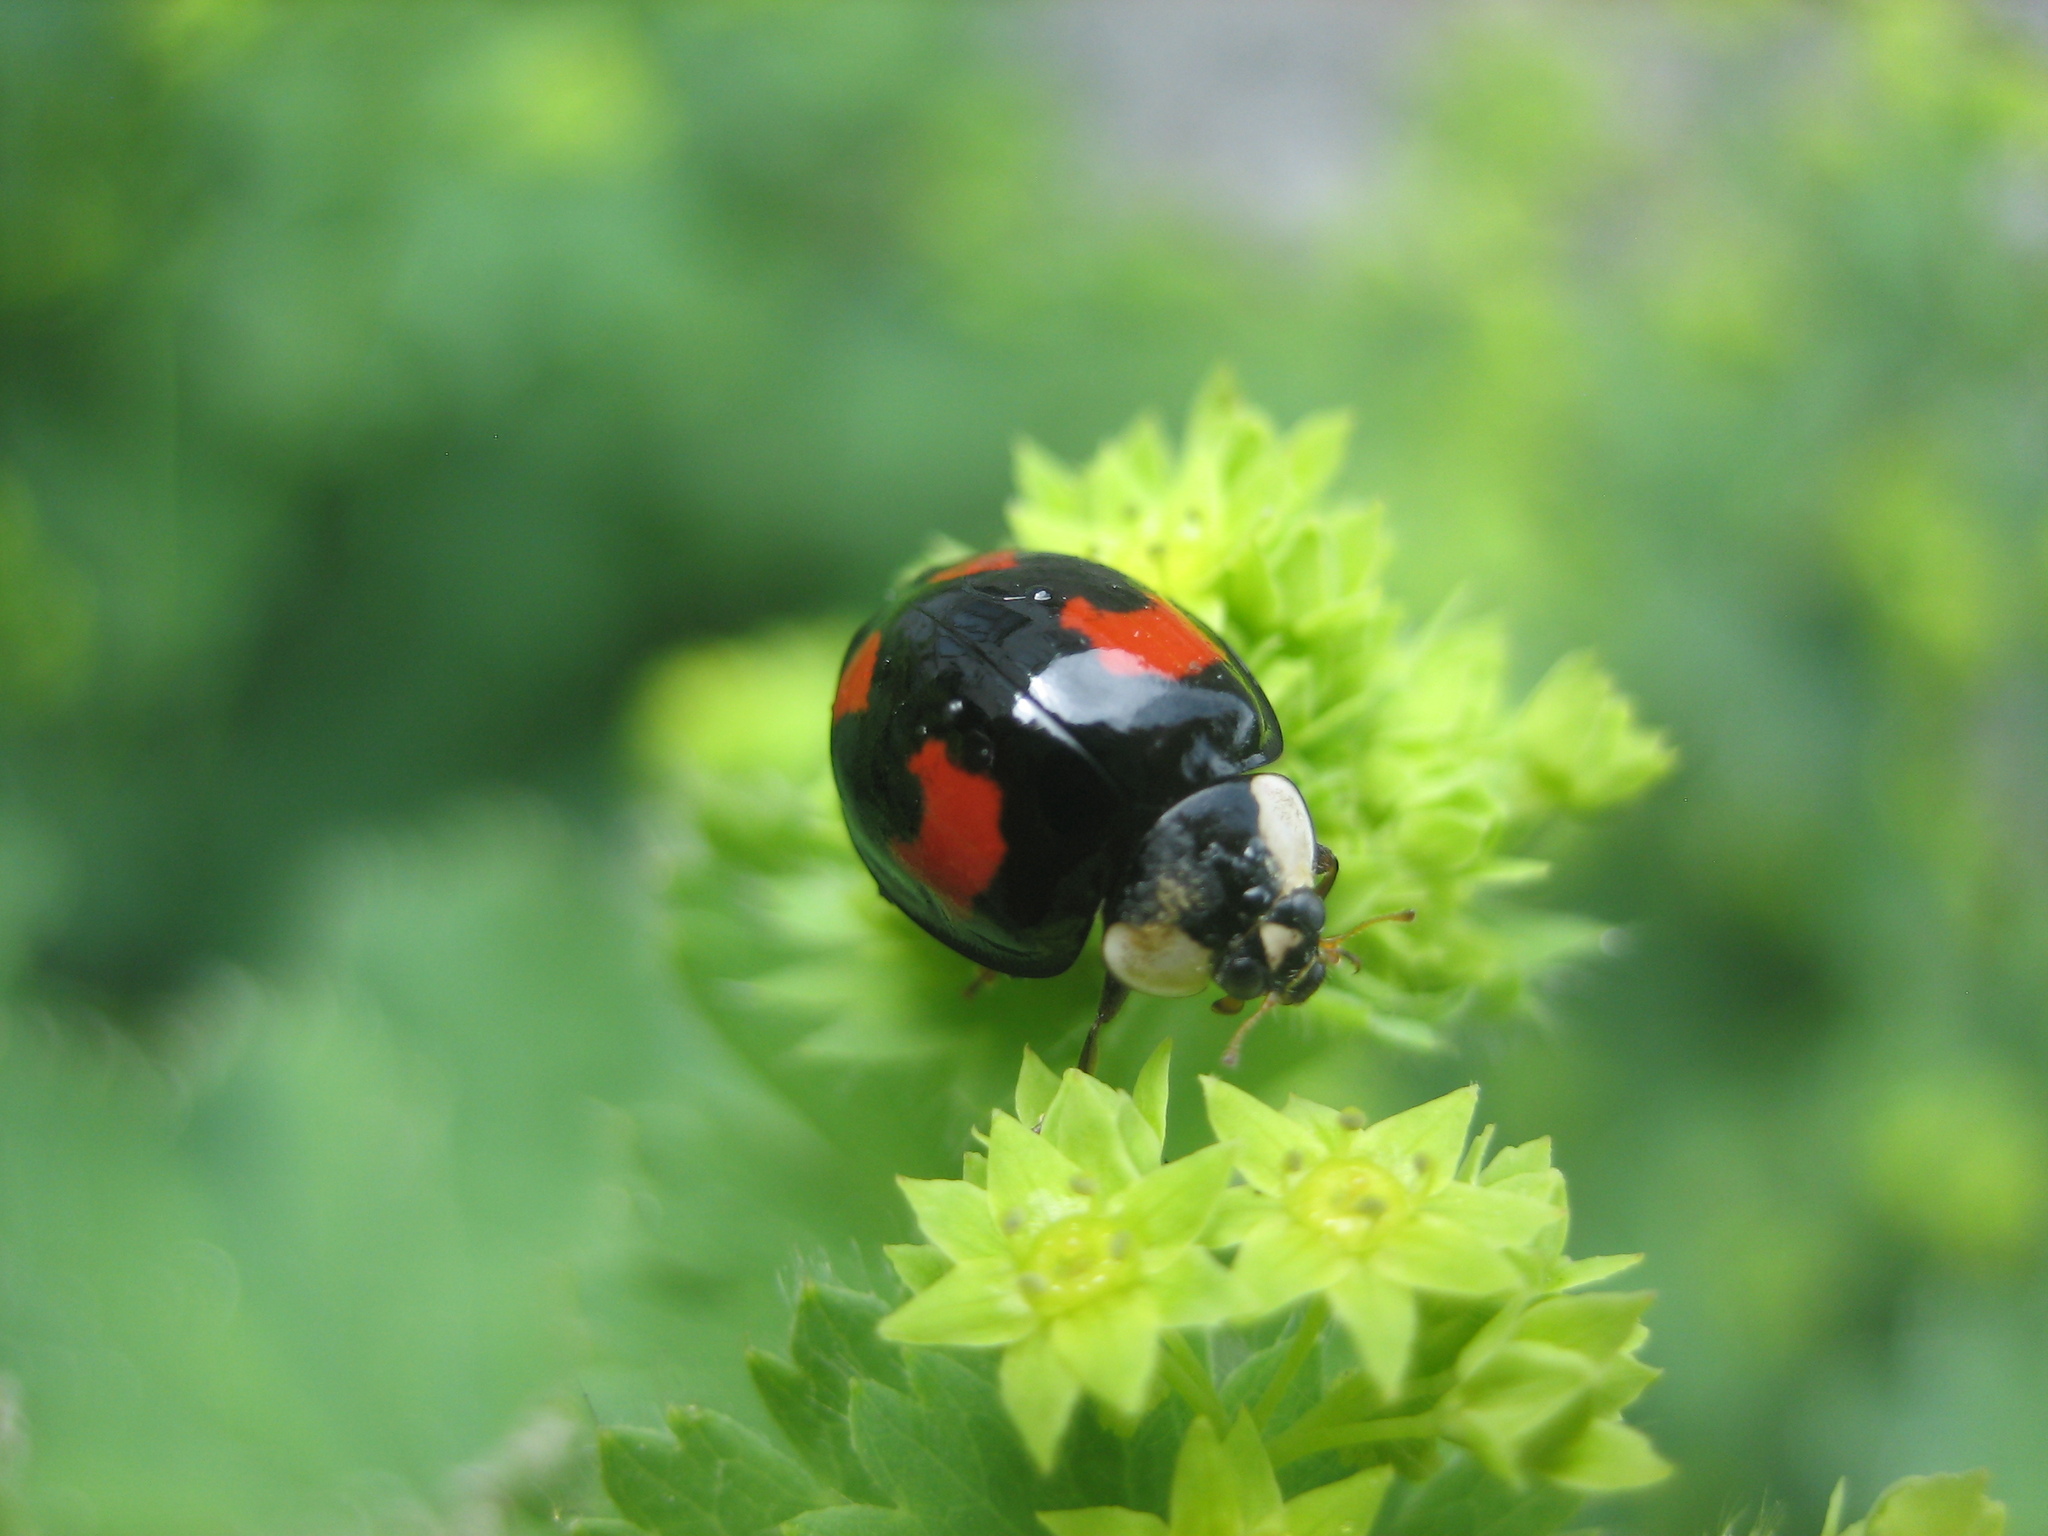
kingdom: Animalia
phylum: Arthropoda
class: Insecta
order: Coleoptera
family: Coccinellidae
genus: Harmonia
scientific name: Harmonia axyridis
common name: Harlequin ladybird
